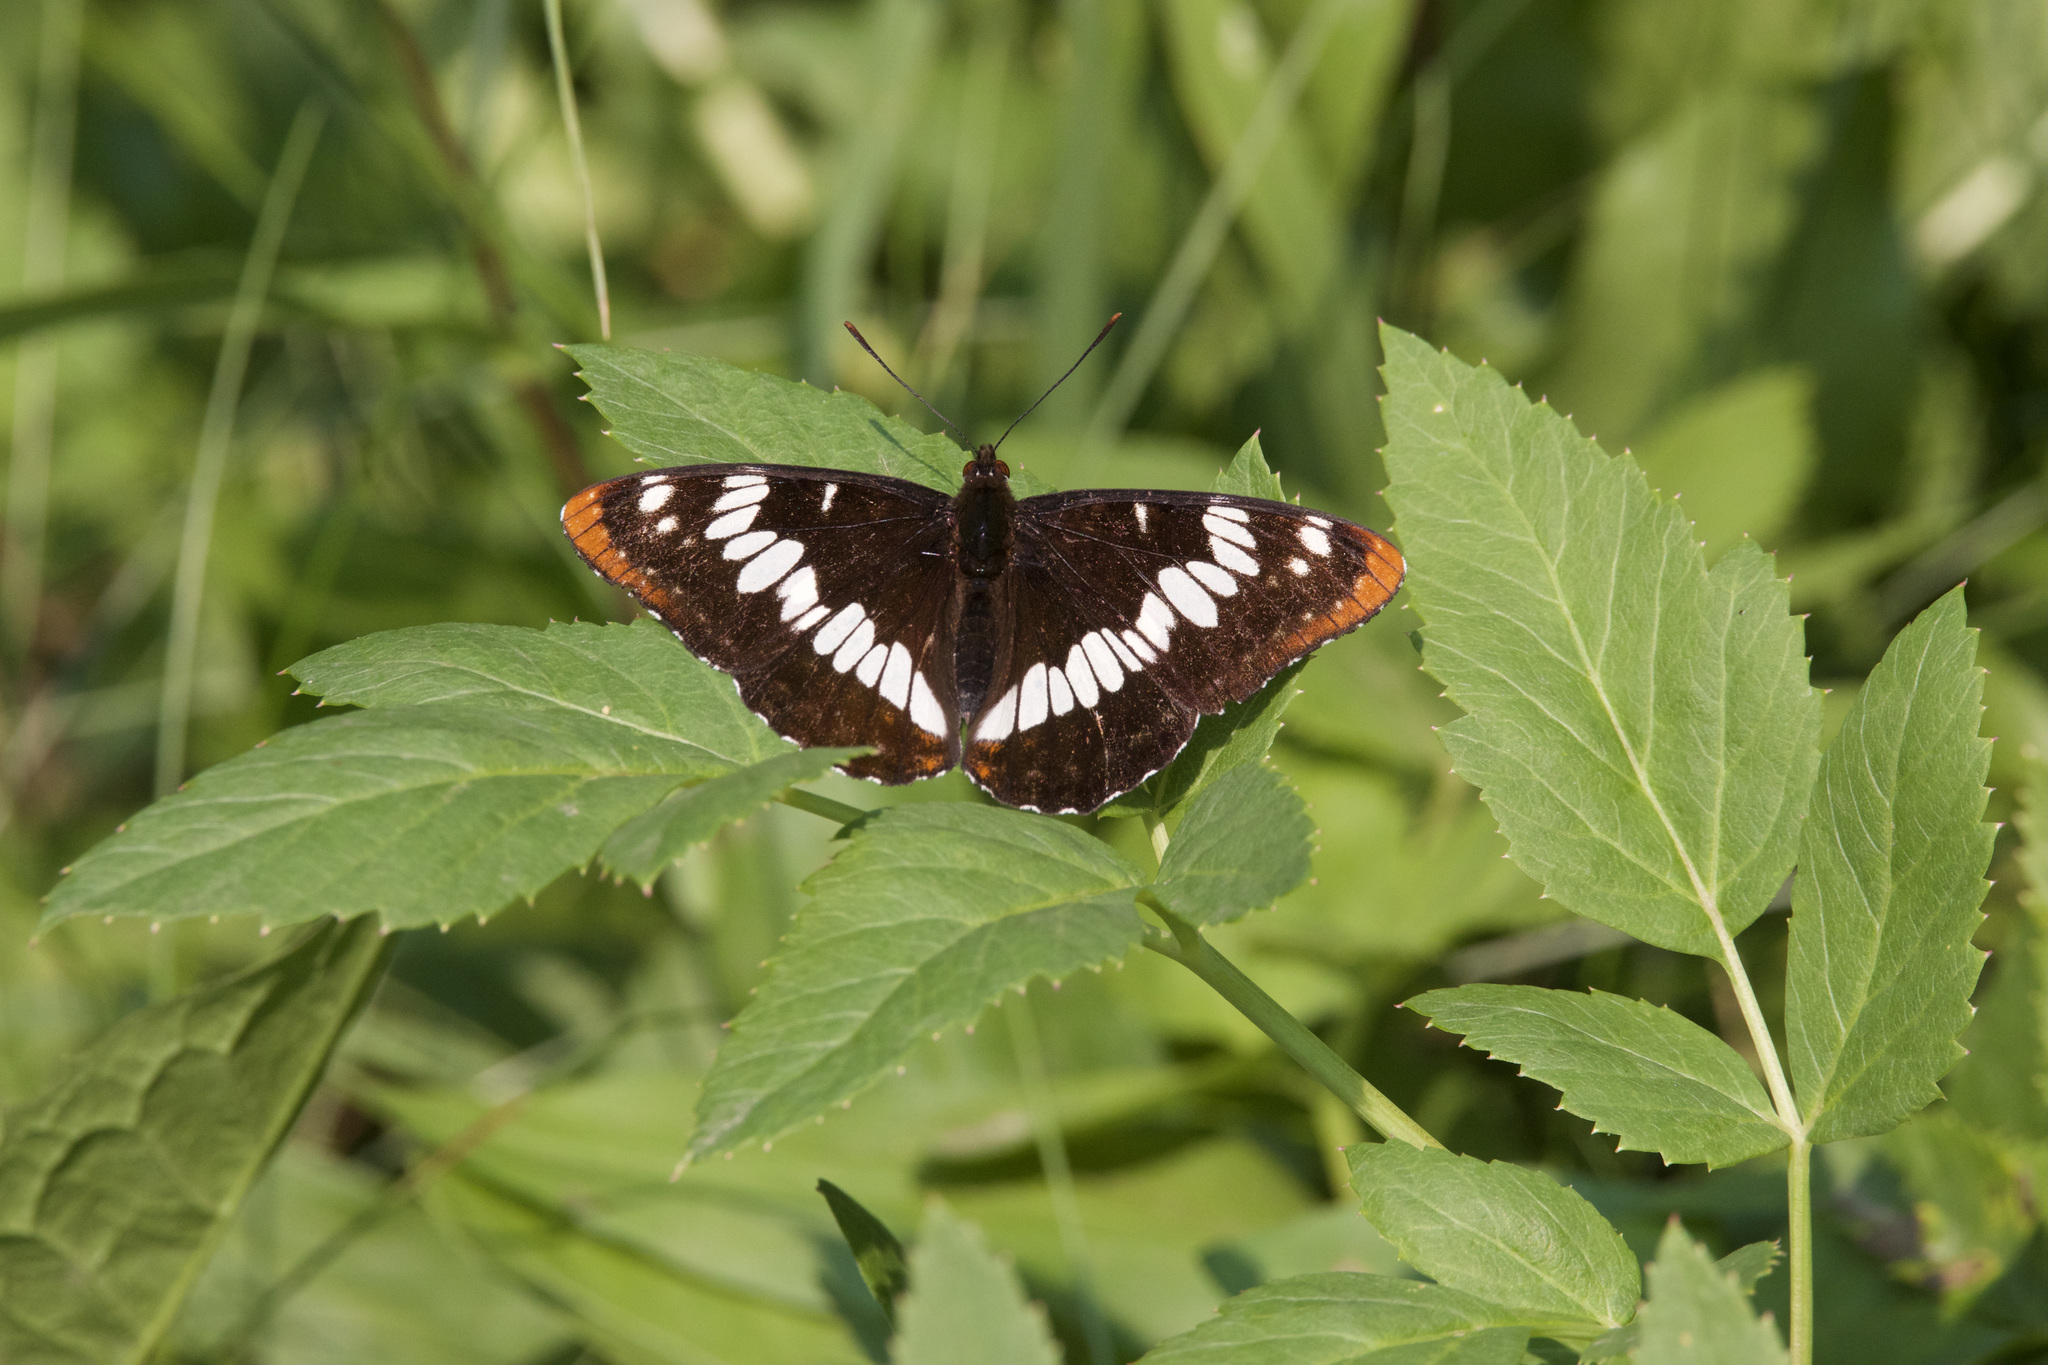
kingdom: Animalia
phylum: Arthropoda
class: Insecta
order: Lepidoptera
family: Nymphalidae
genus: Limenitis
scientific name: Limenitis lorquini
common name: Lorquin's admiral
